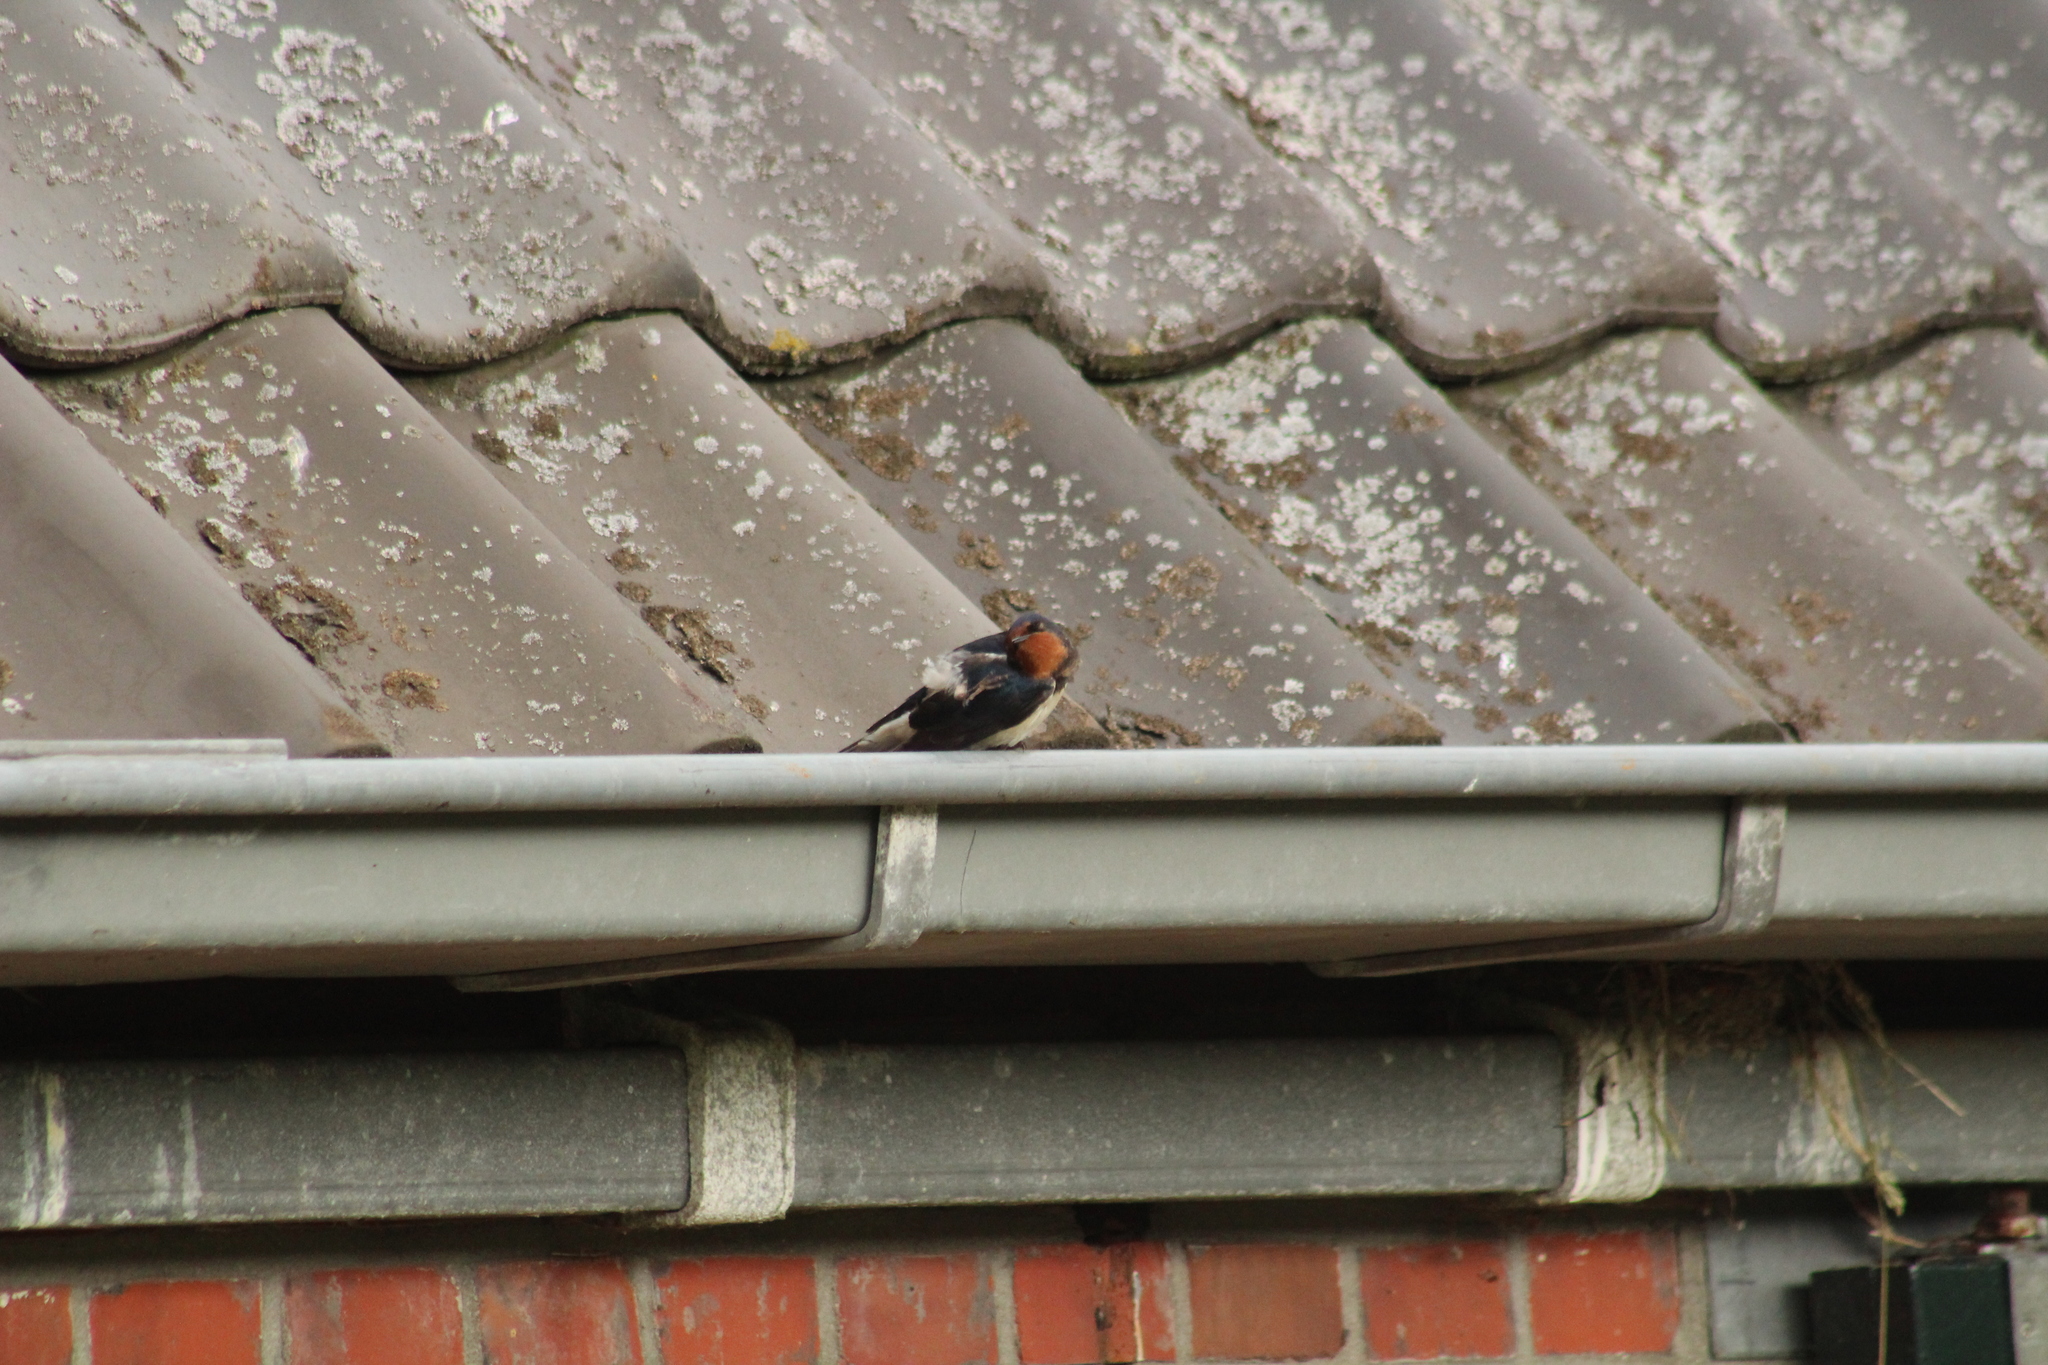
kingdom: Animalia
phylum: Chordata
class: Aves
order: Passeriformes
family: Hirundinidae
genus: Hirundo
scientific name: Hirundo rustica
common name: Barn swallow
